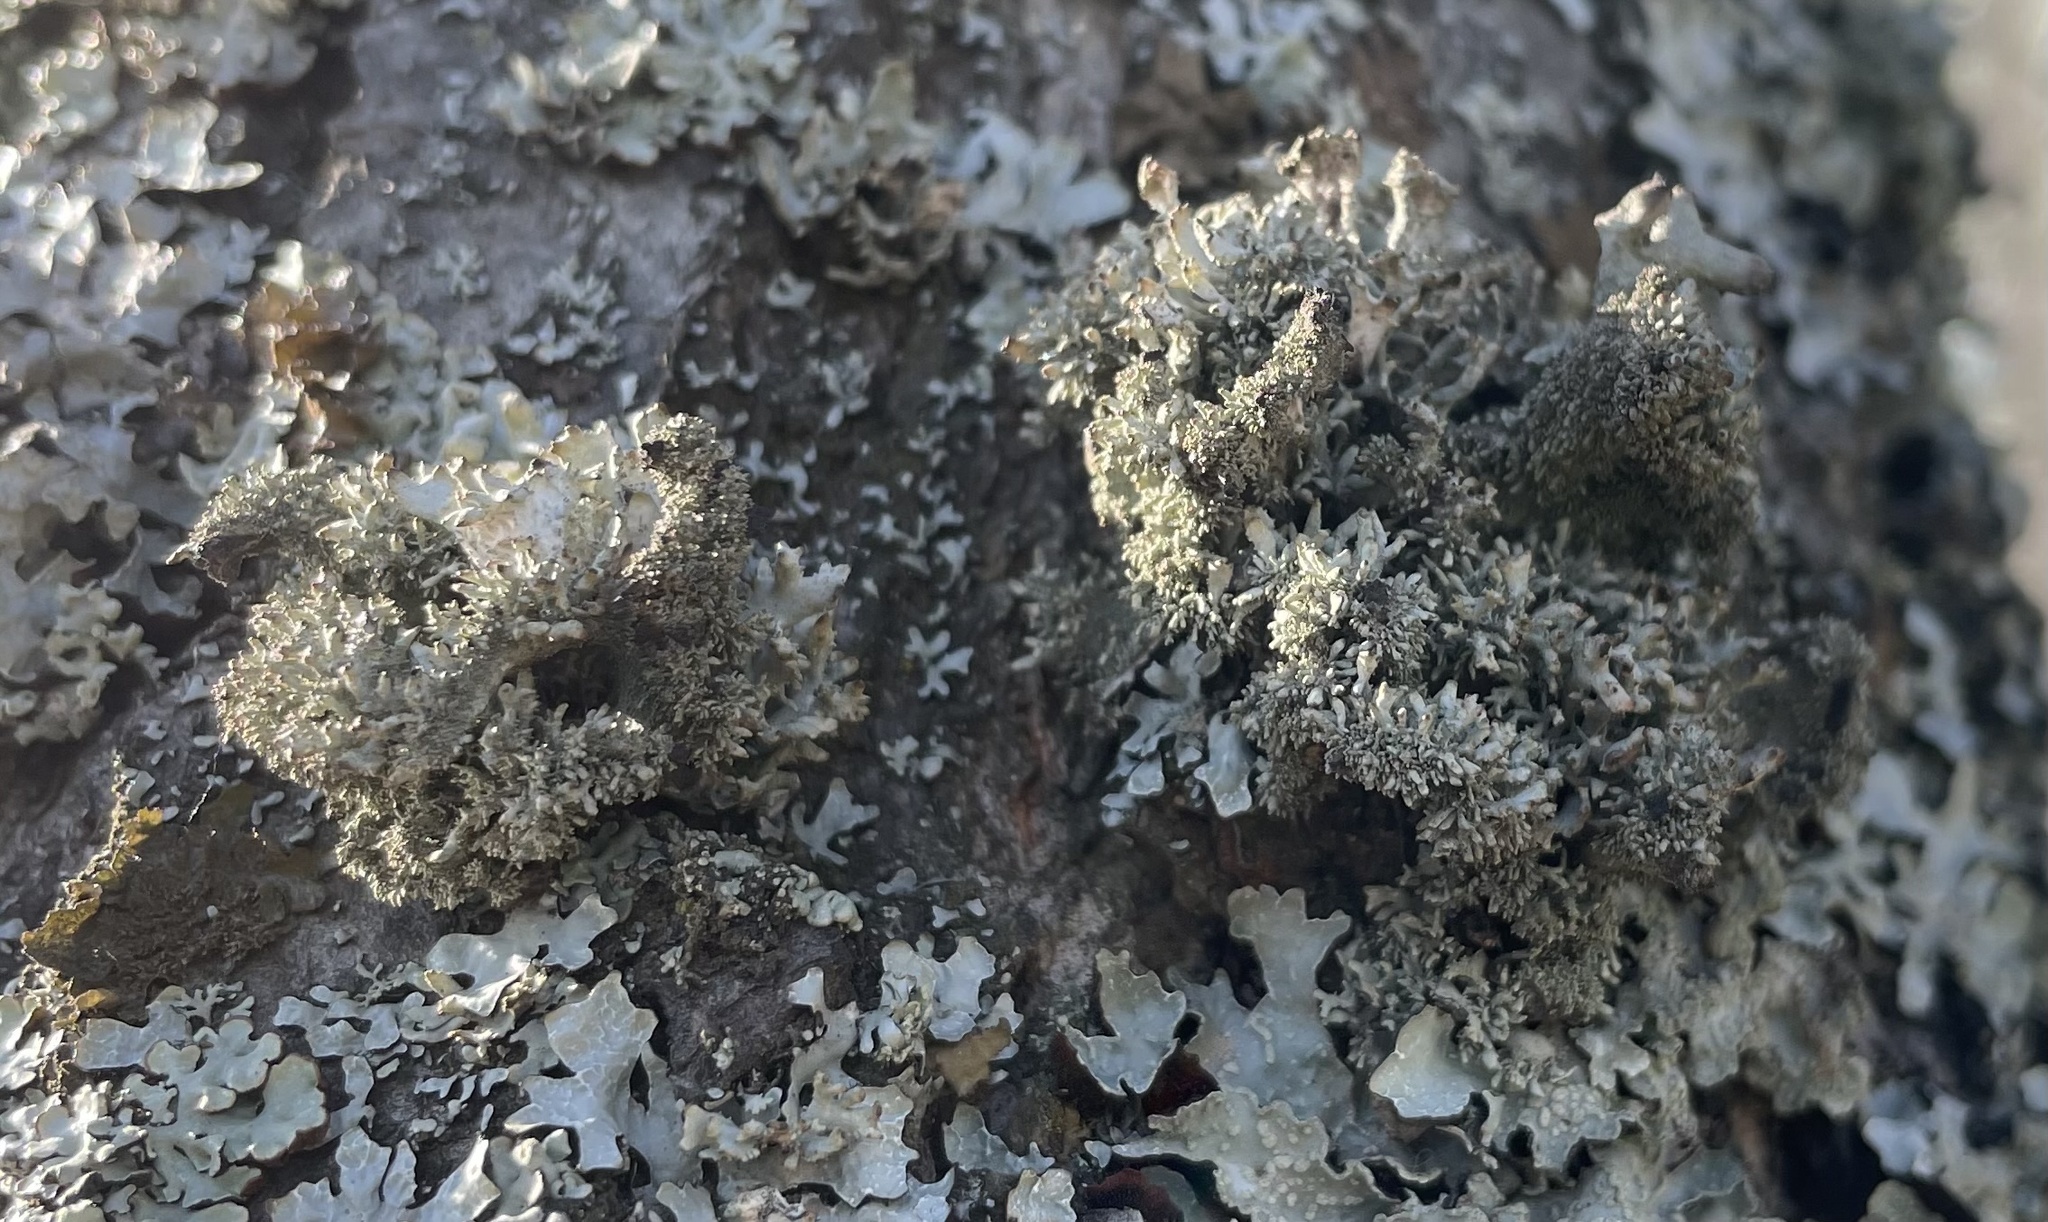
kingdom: Fungi
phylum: Ascomycota
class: Lecanoromycetes
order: Lecanorales
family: Parmeliaceae
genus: Pseudevernia
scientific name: Pseudevernia furfuracea
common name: Tree moss
